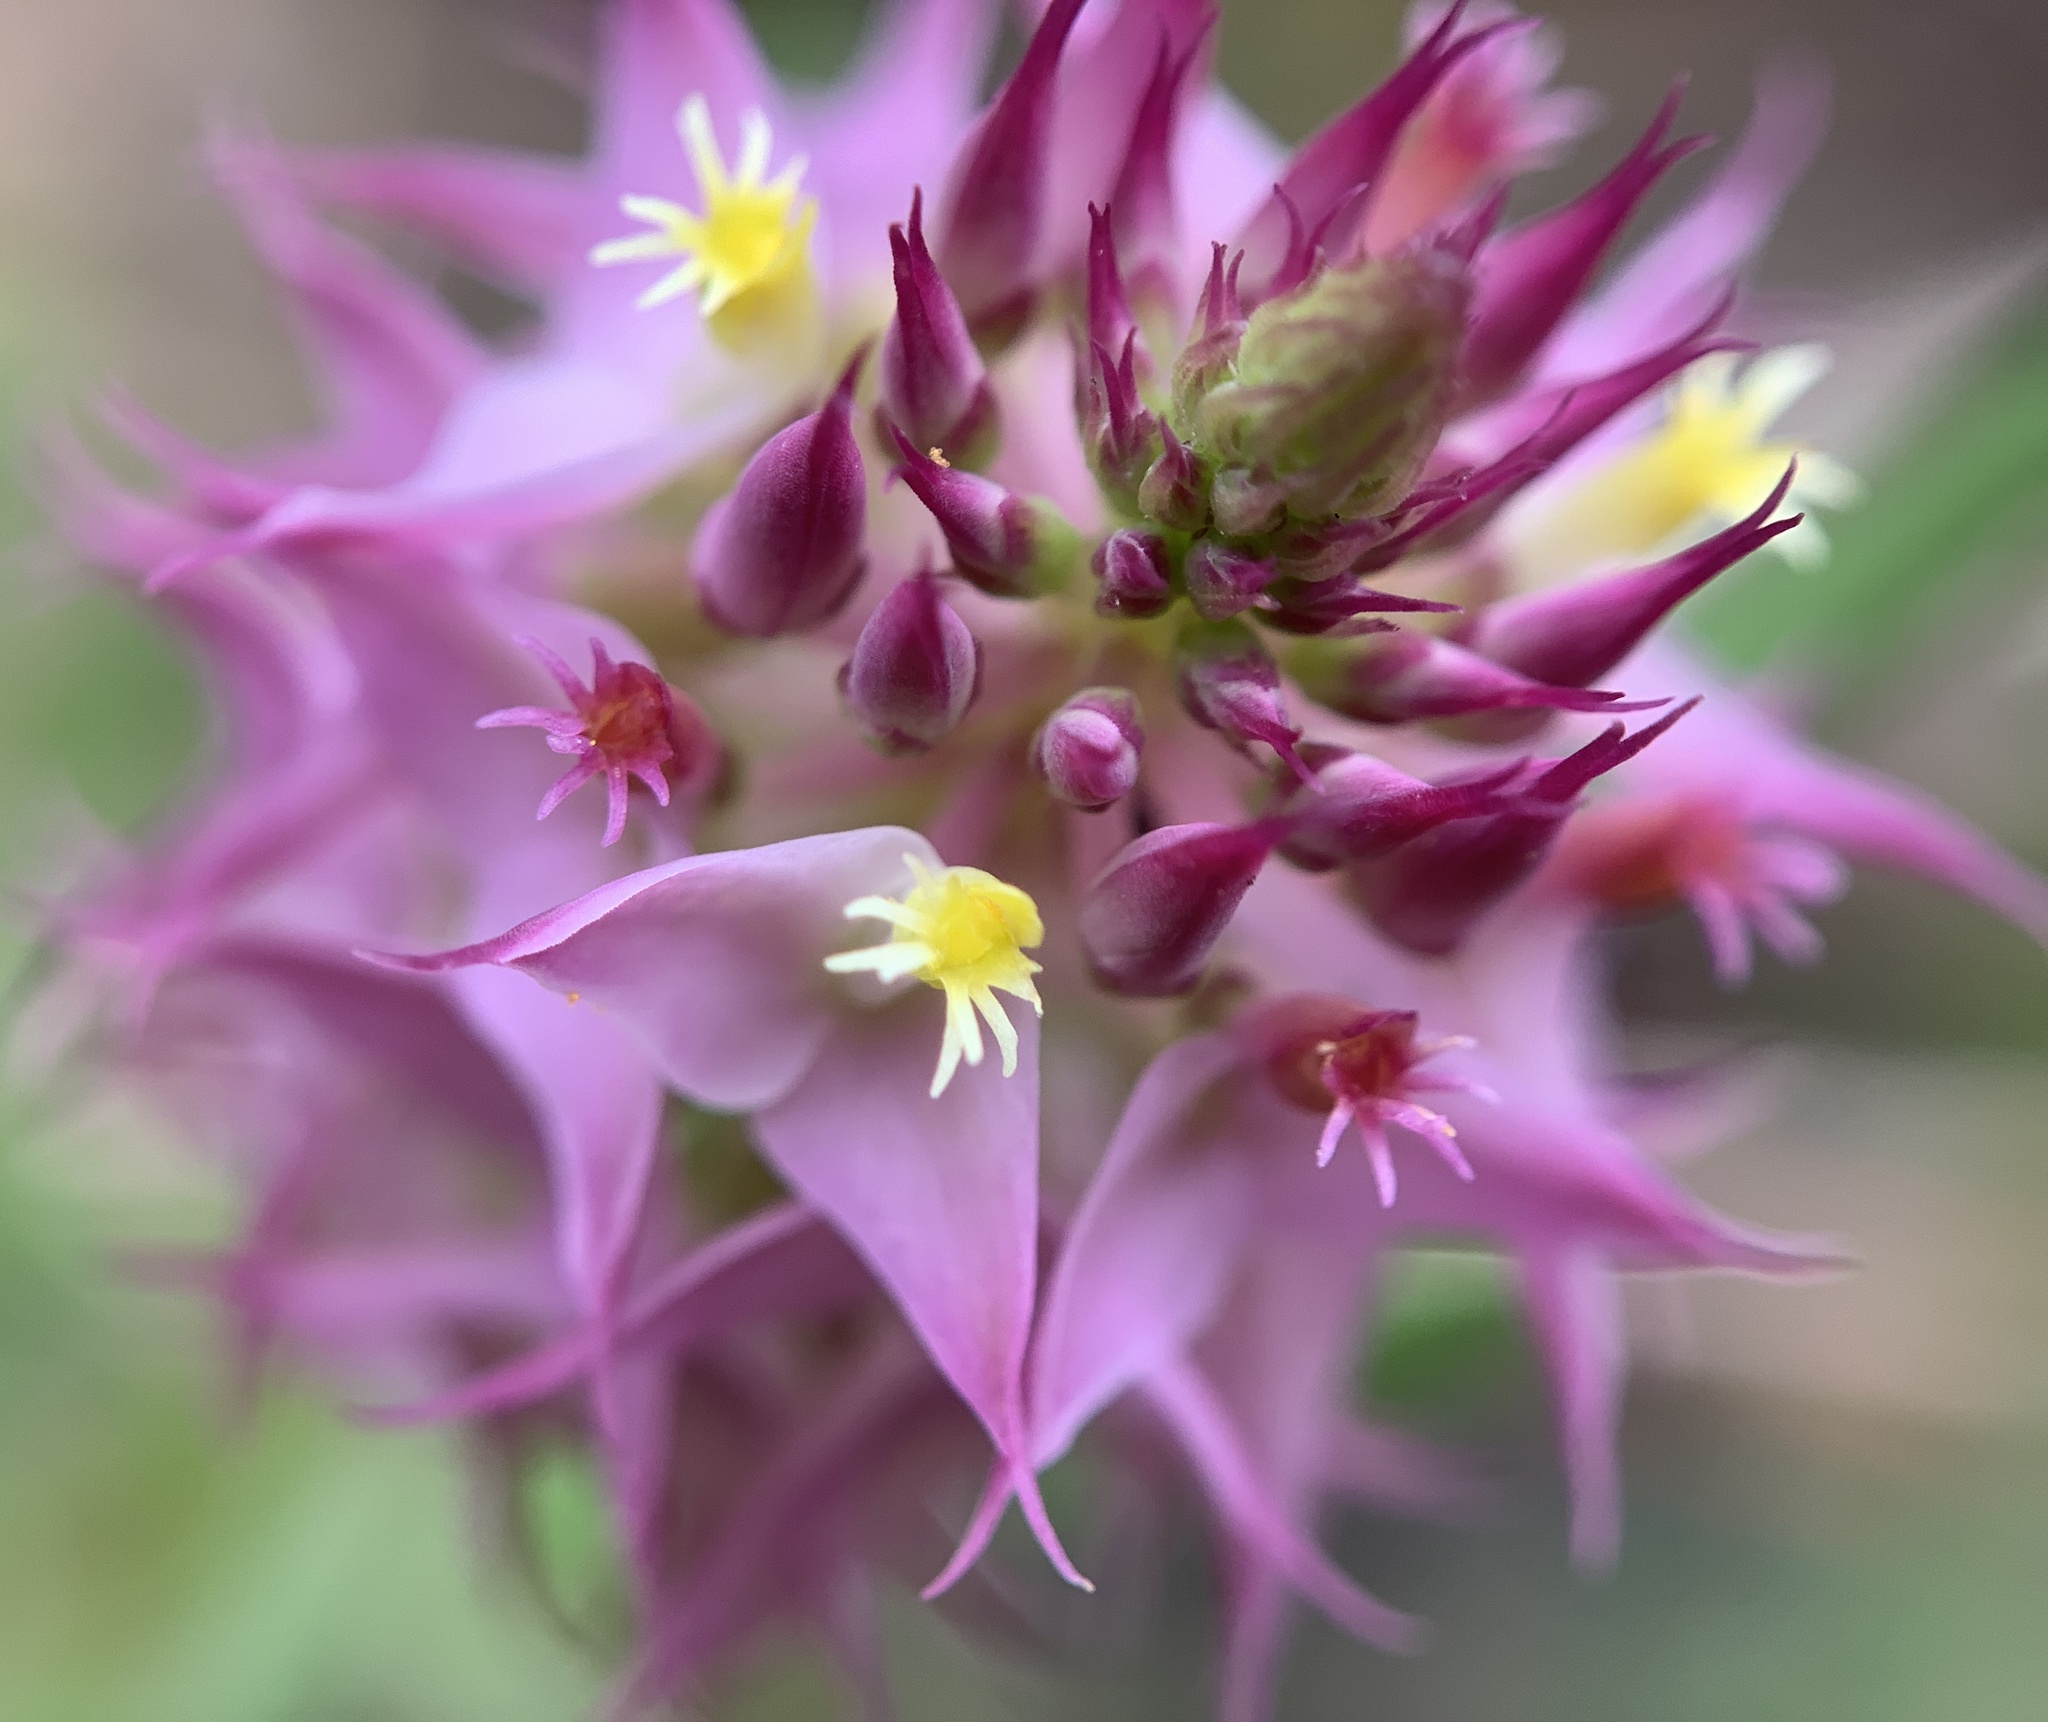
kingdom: Plantae
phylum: Tracheophyta
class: Magnoliopsida
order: Fabales
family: Polygalaceae
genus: Polygala
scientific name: Polygala cruciata
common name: Drumheads
